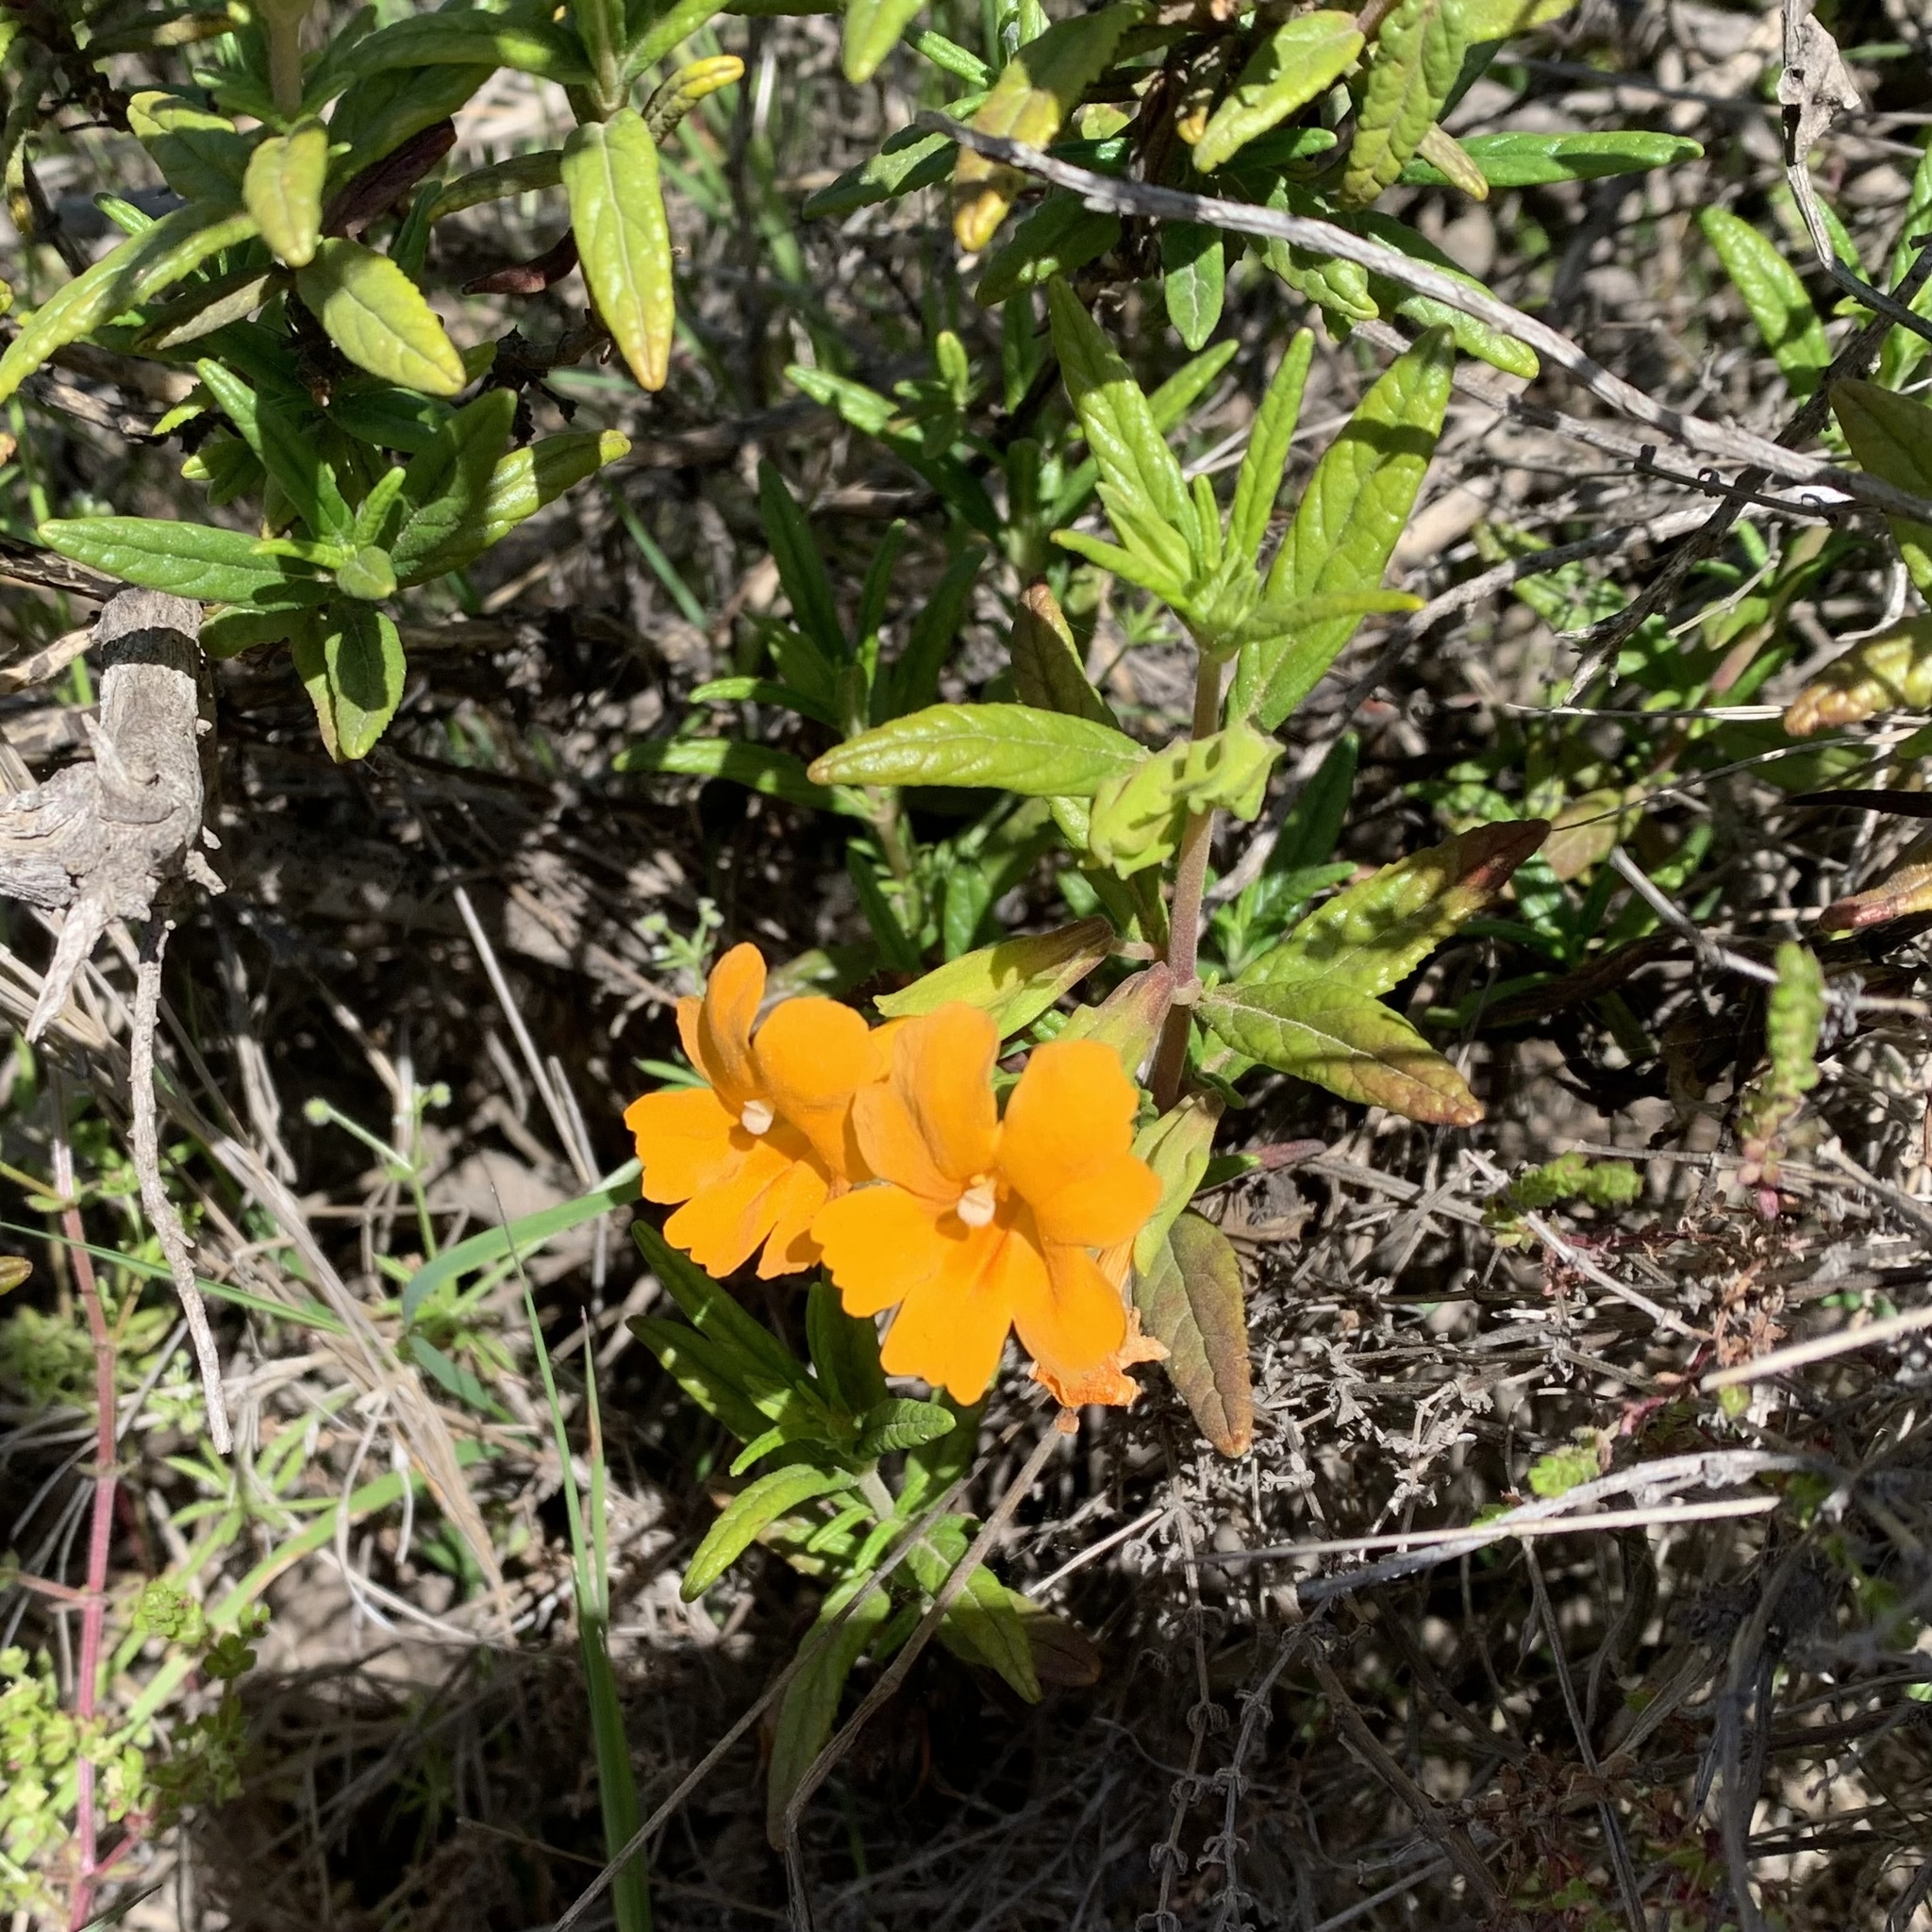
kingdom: Plantae
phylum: Tracheophyta
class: Magnoliopsida
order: Lamiales
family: Phrymaceae
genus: Diplacus
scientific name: Diplacus aurantiacus
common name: Bush monkey-flower
